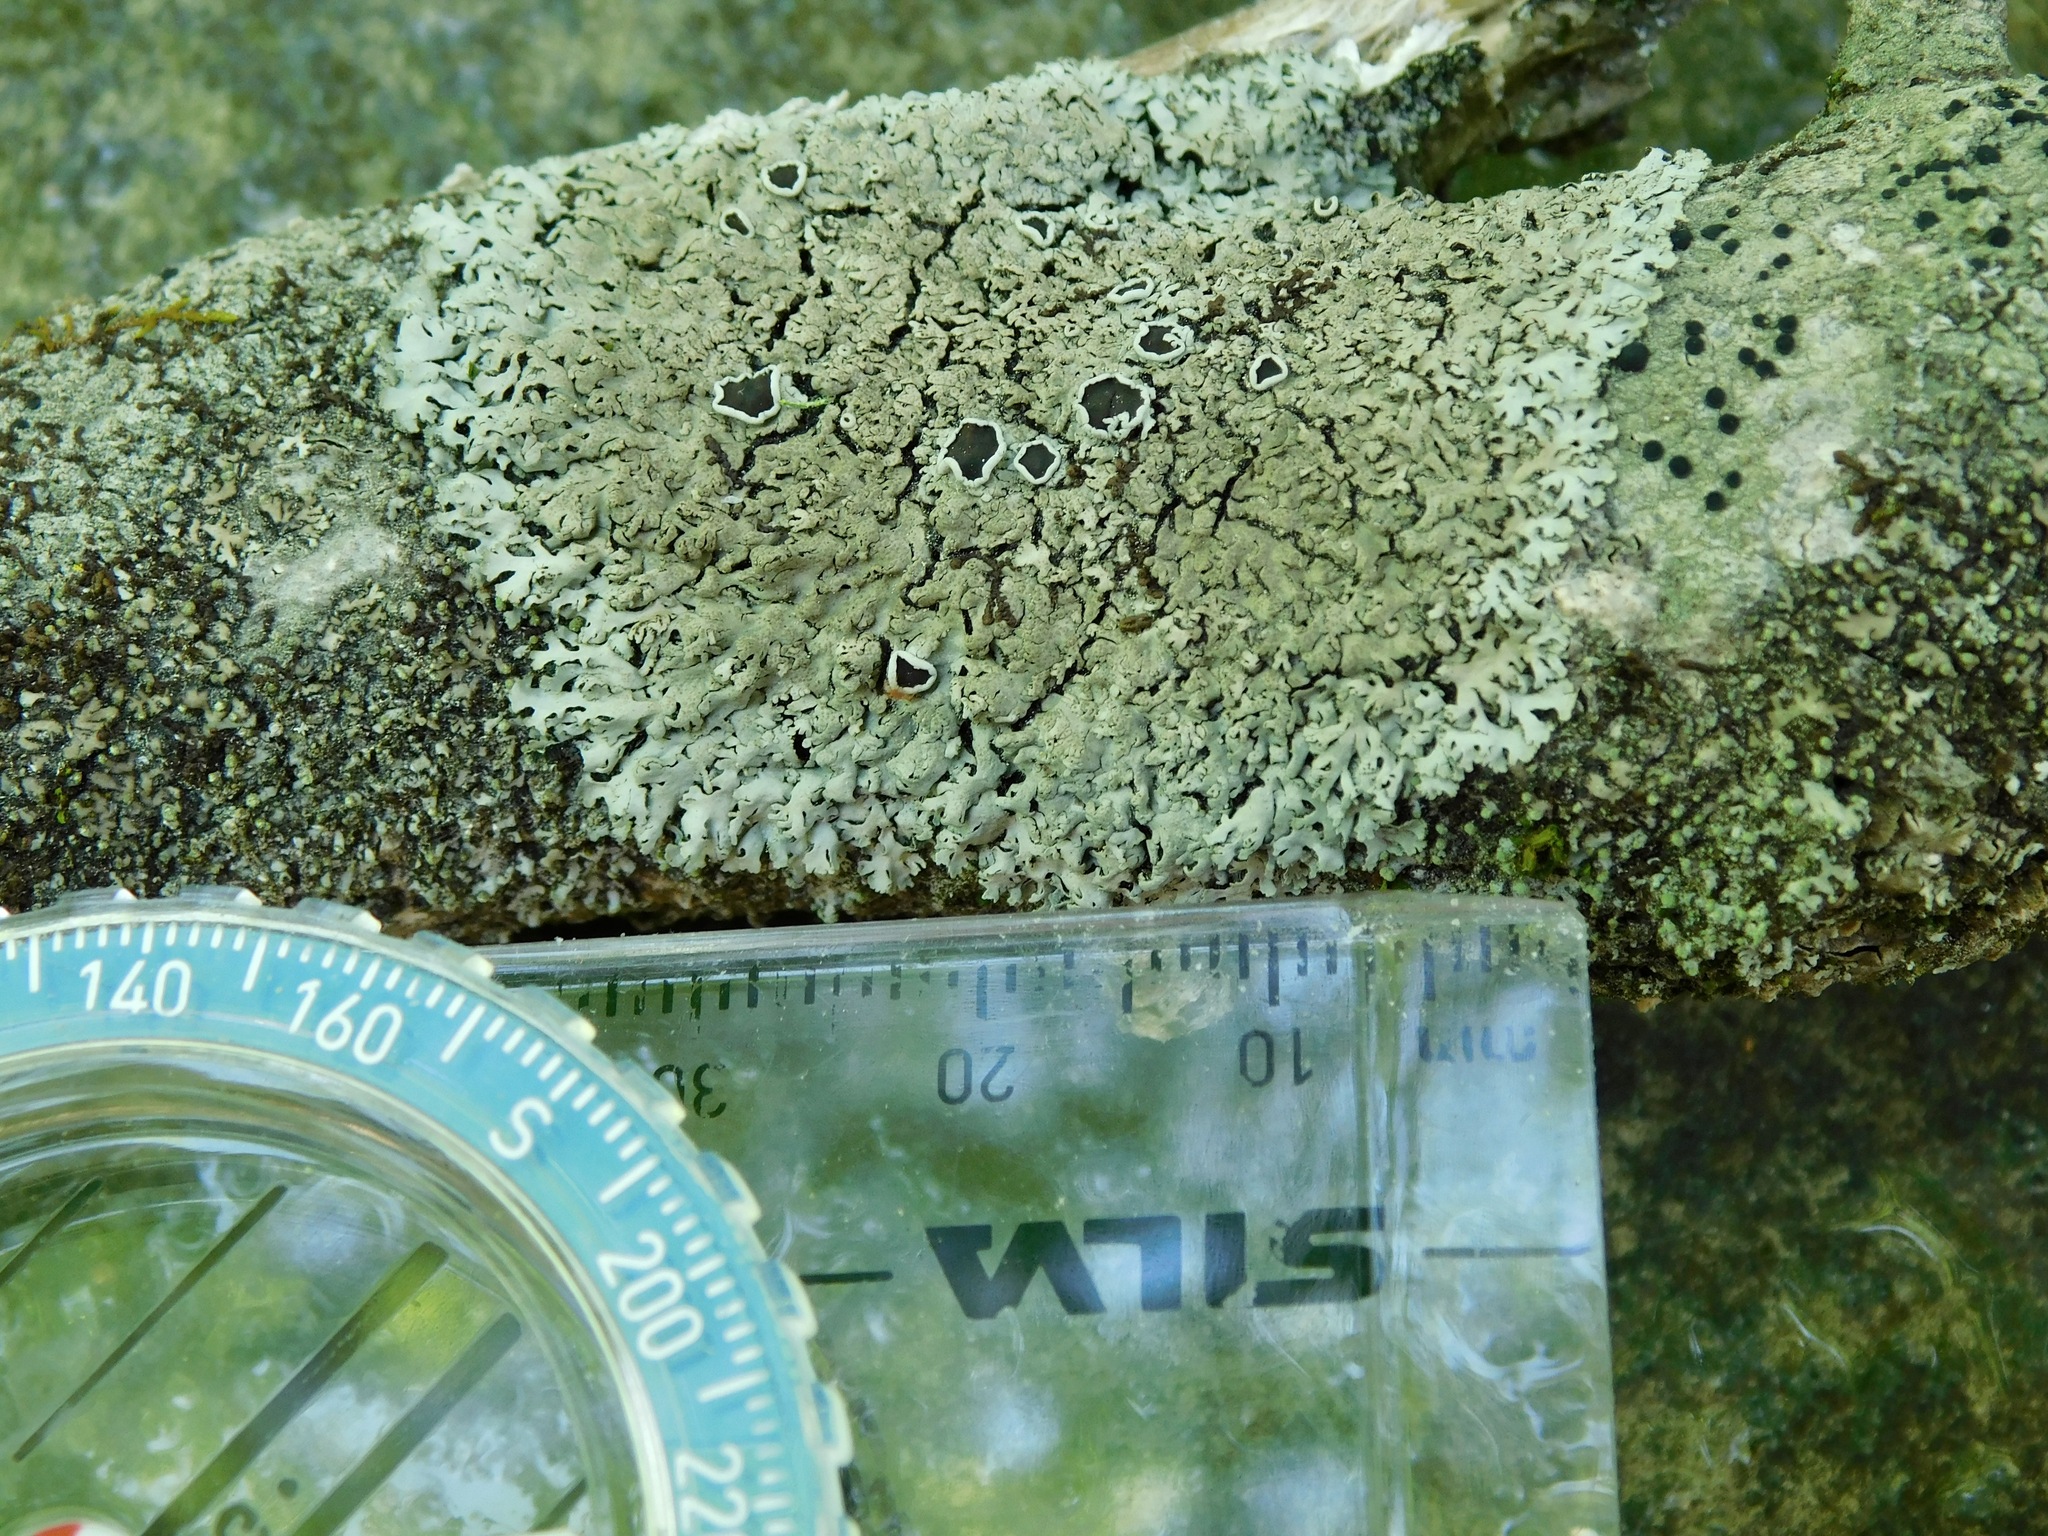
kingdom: Fungi
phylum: Ascomycota
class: Lecanoromycetes
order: Caliciales
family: Physciaceae
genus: Hyperphyscia
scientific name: Hyperphyscia syncolla
